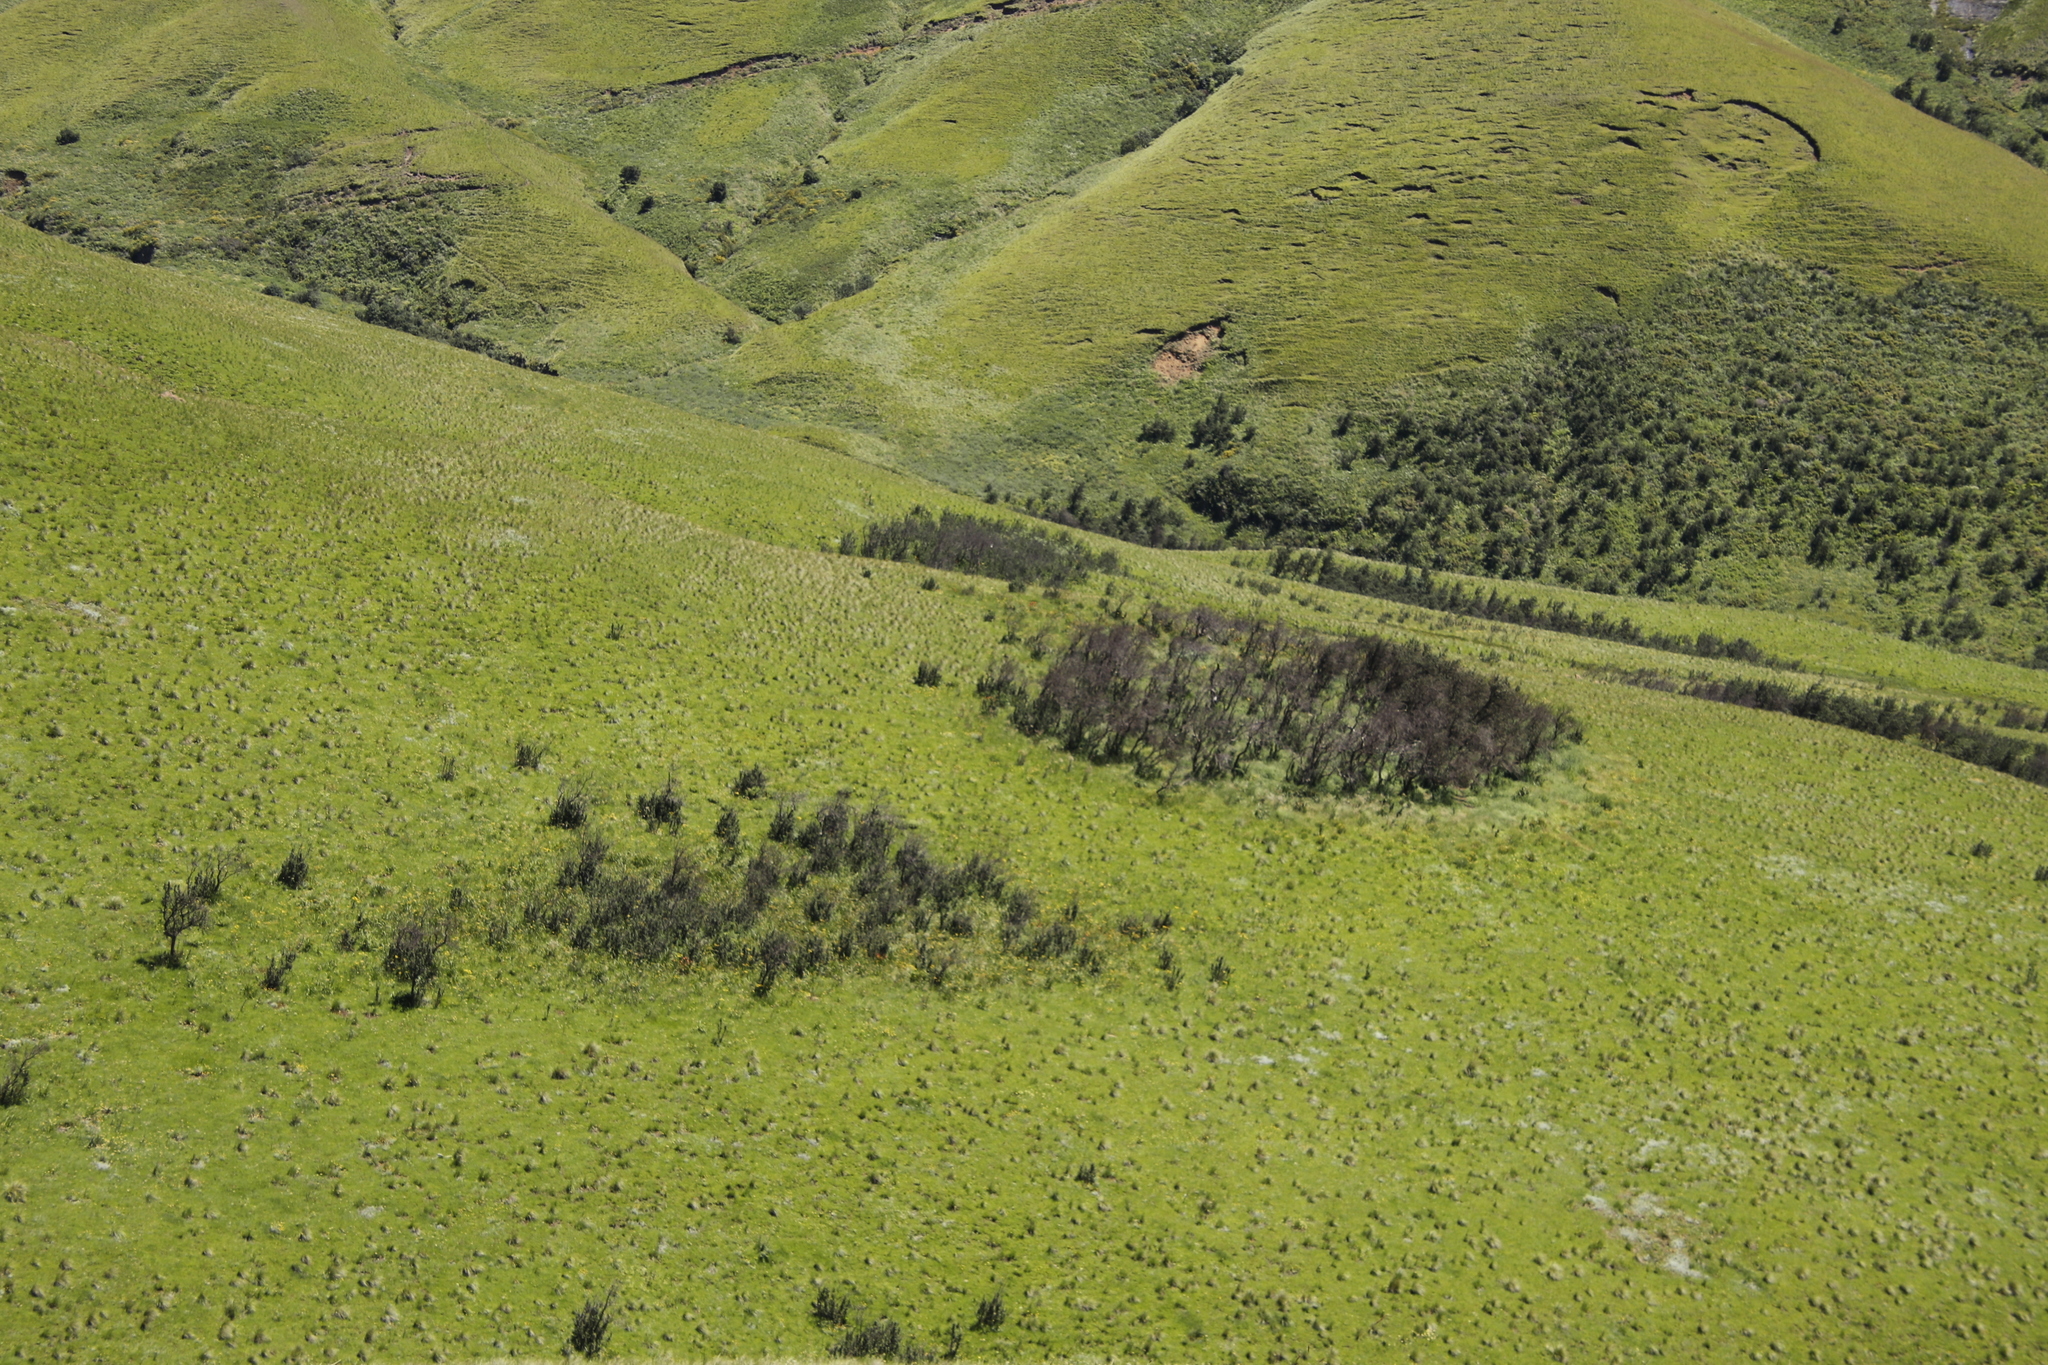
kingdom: Plantae
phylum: Tracheophyta
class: Magnoliopsida
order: Rosales
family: Rosaceae
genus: Leucosidea
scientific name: Leucosidea sericea
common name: Oldwood
